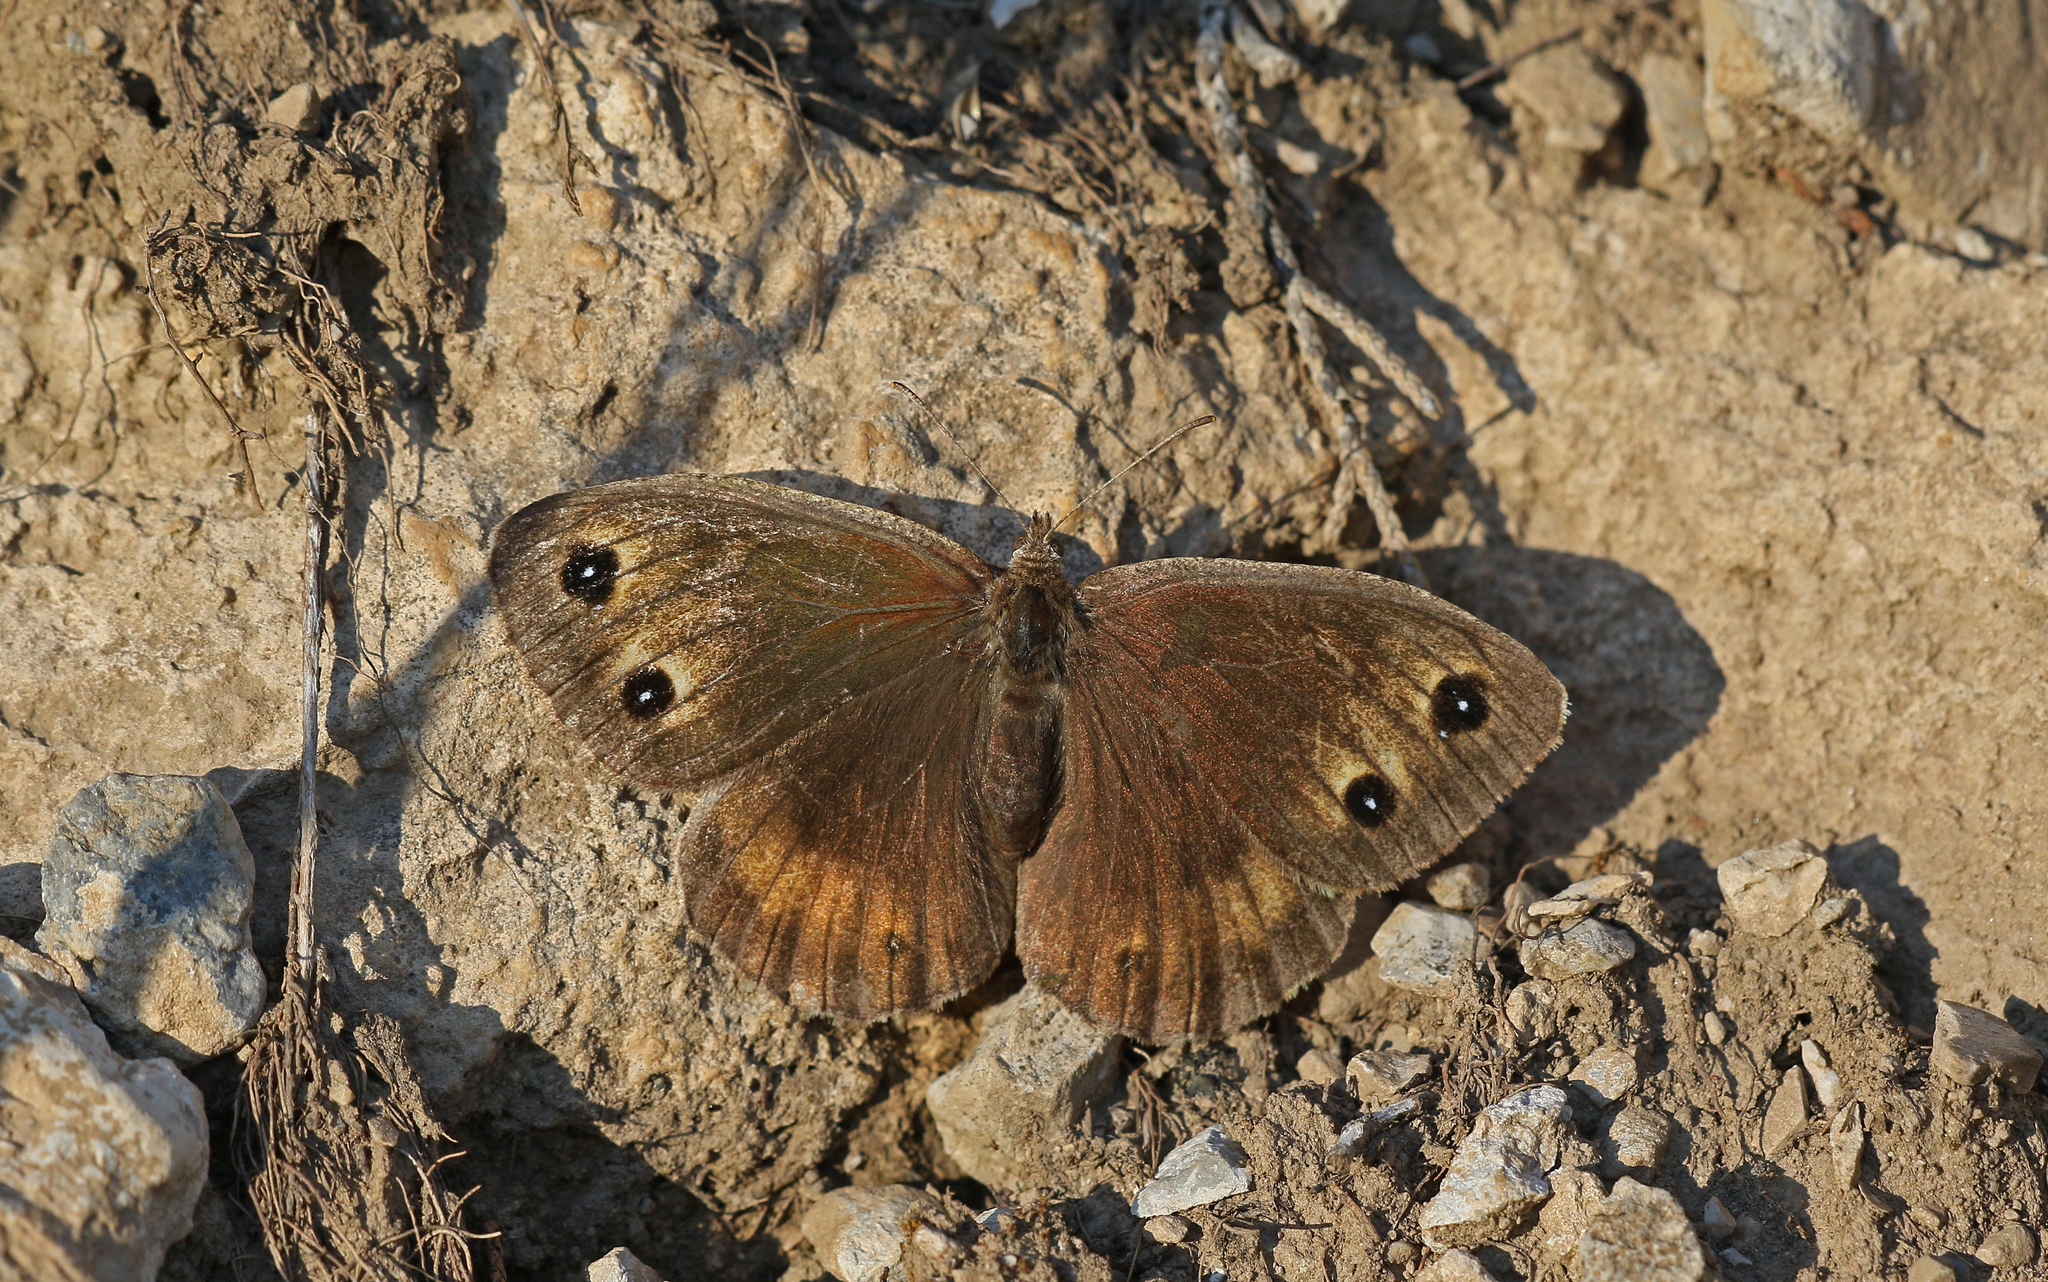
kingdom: Animalia
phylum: Arthropoda
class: Insecta
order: Lepidoptera
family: Nymphalidae
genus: Satyrus
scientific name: Satyrus ferula
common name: Great sooty satyr
